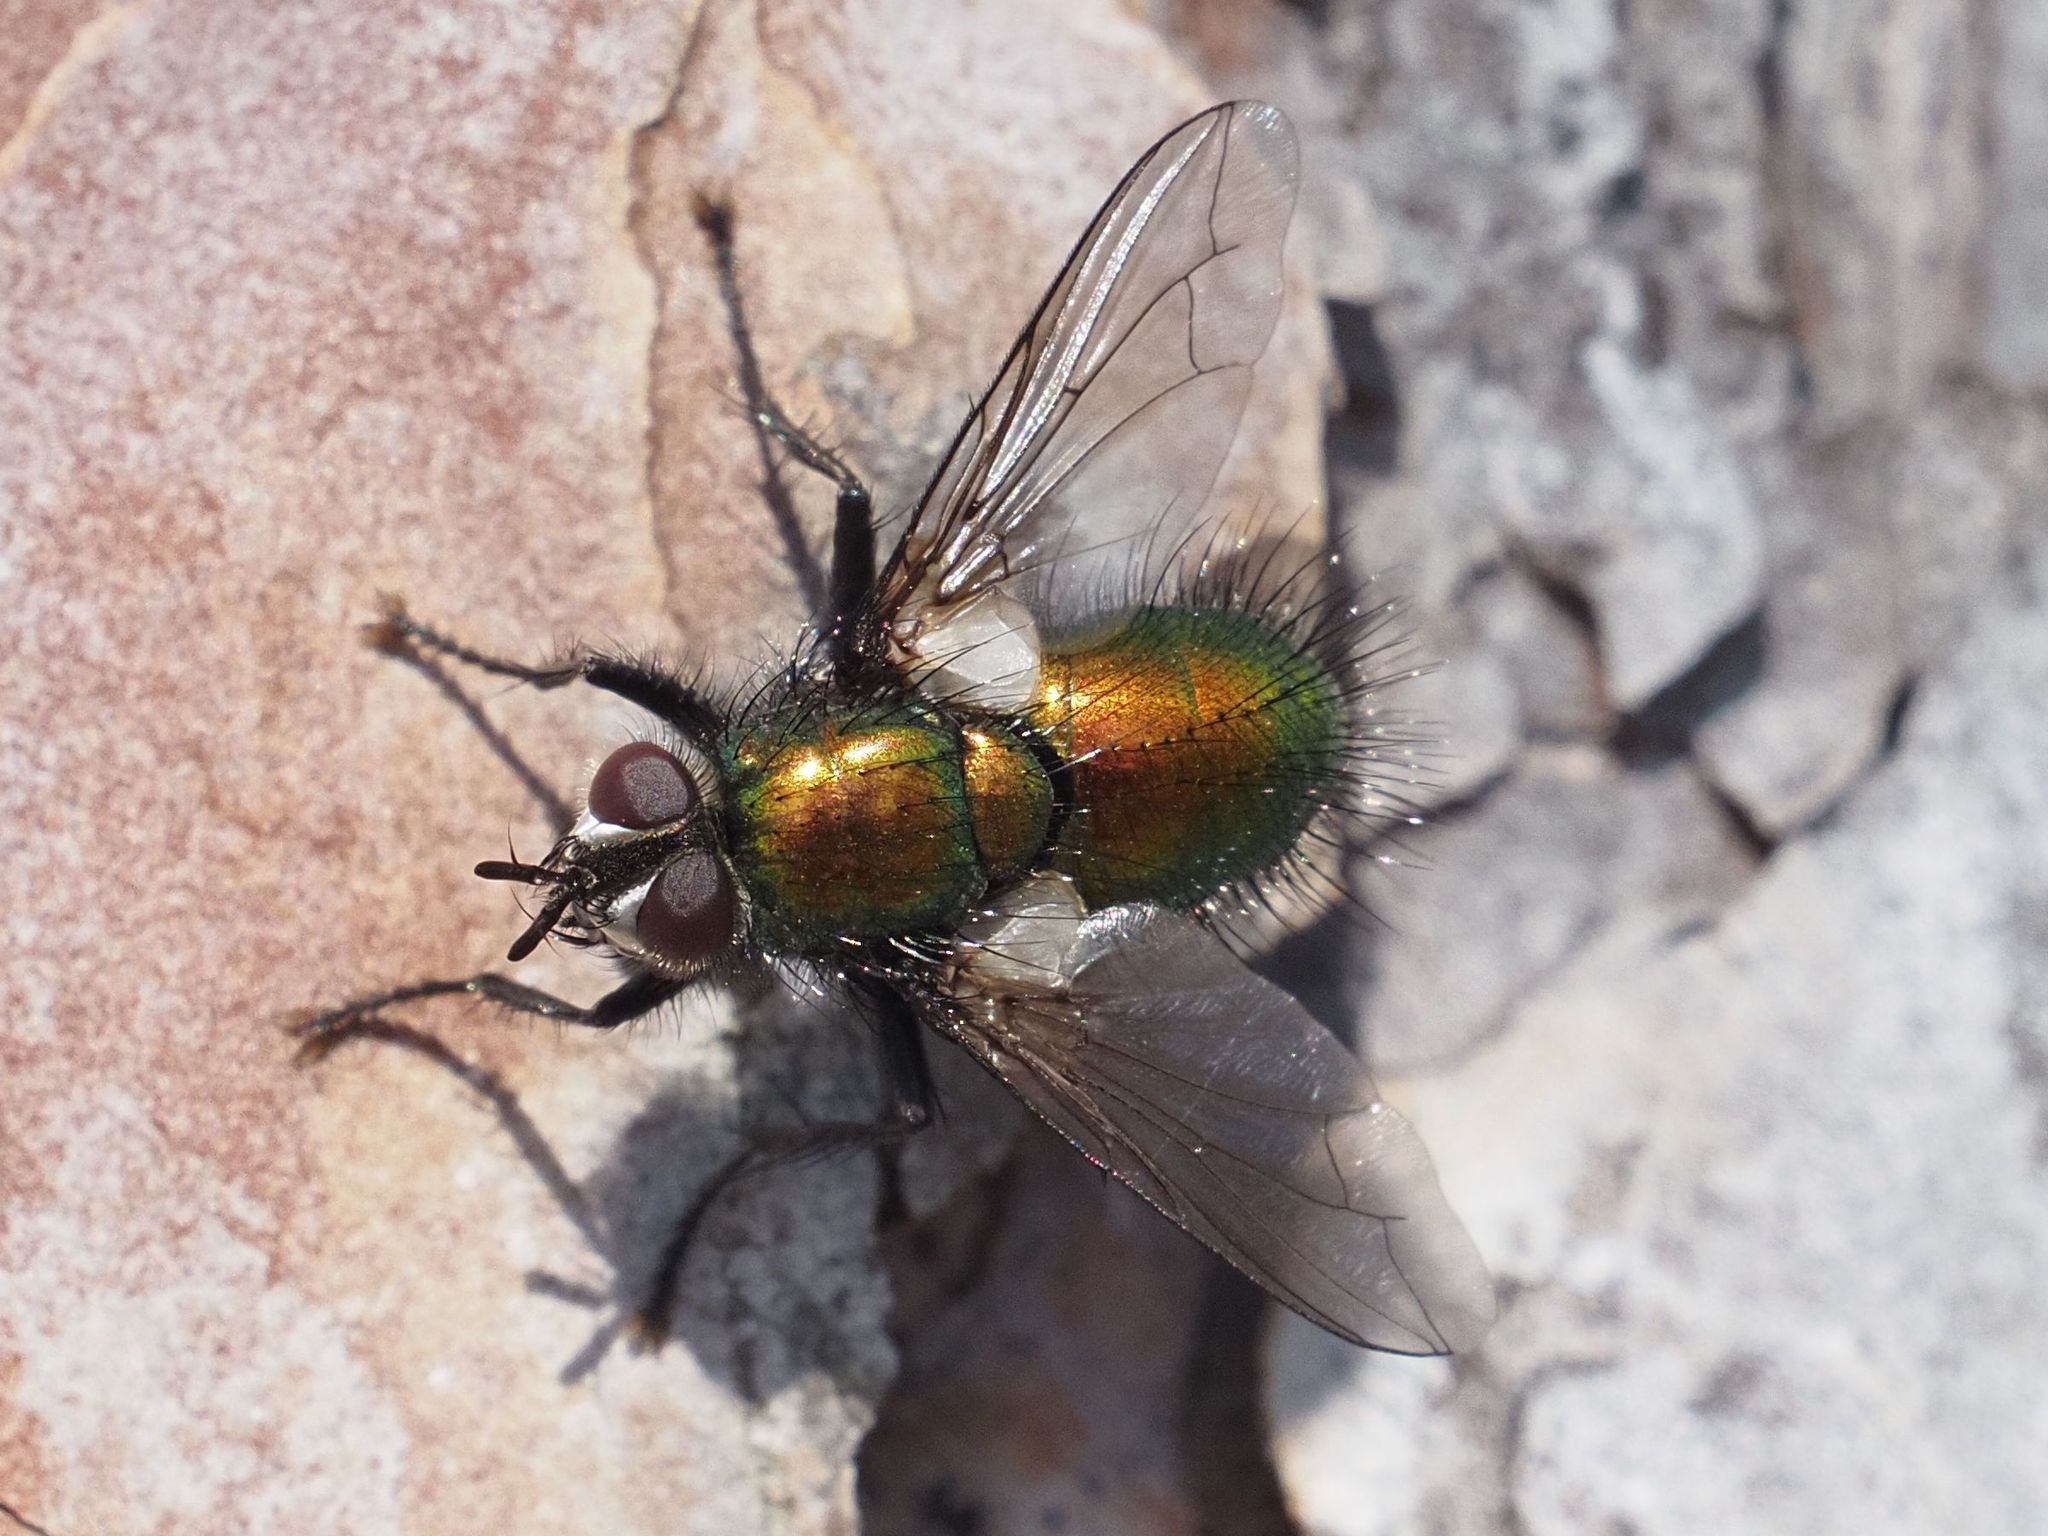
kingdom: Animalia
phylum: Arthropoda
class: Insecta
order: Diptera
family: Tachinidae
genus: Gymnocheta
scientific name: Gymnocheta viridis
